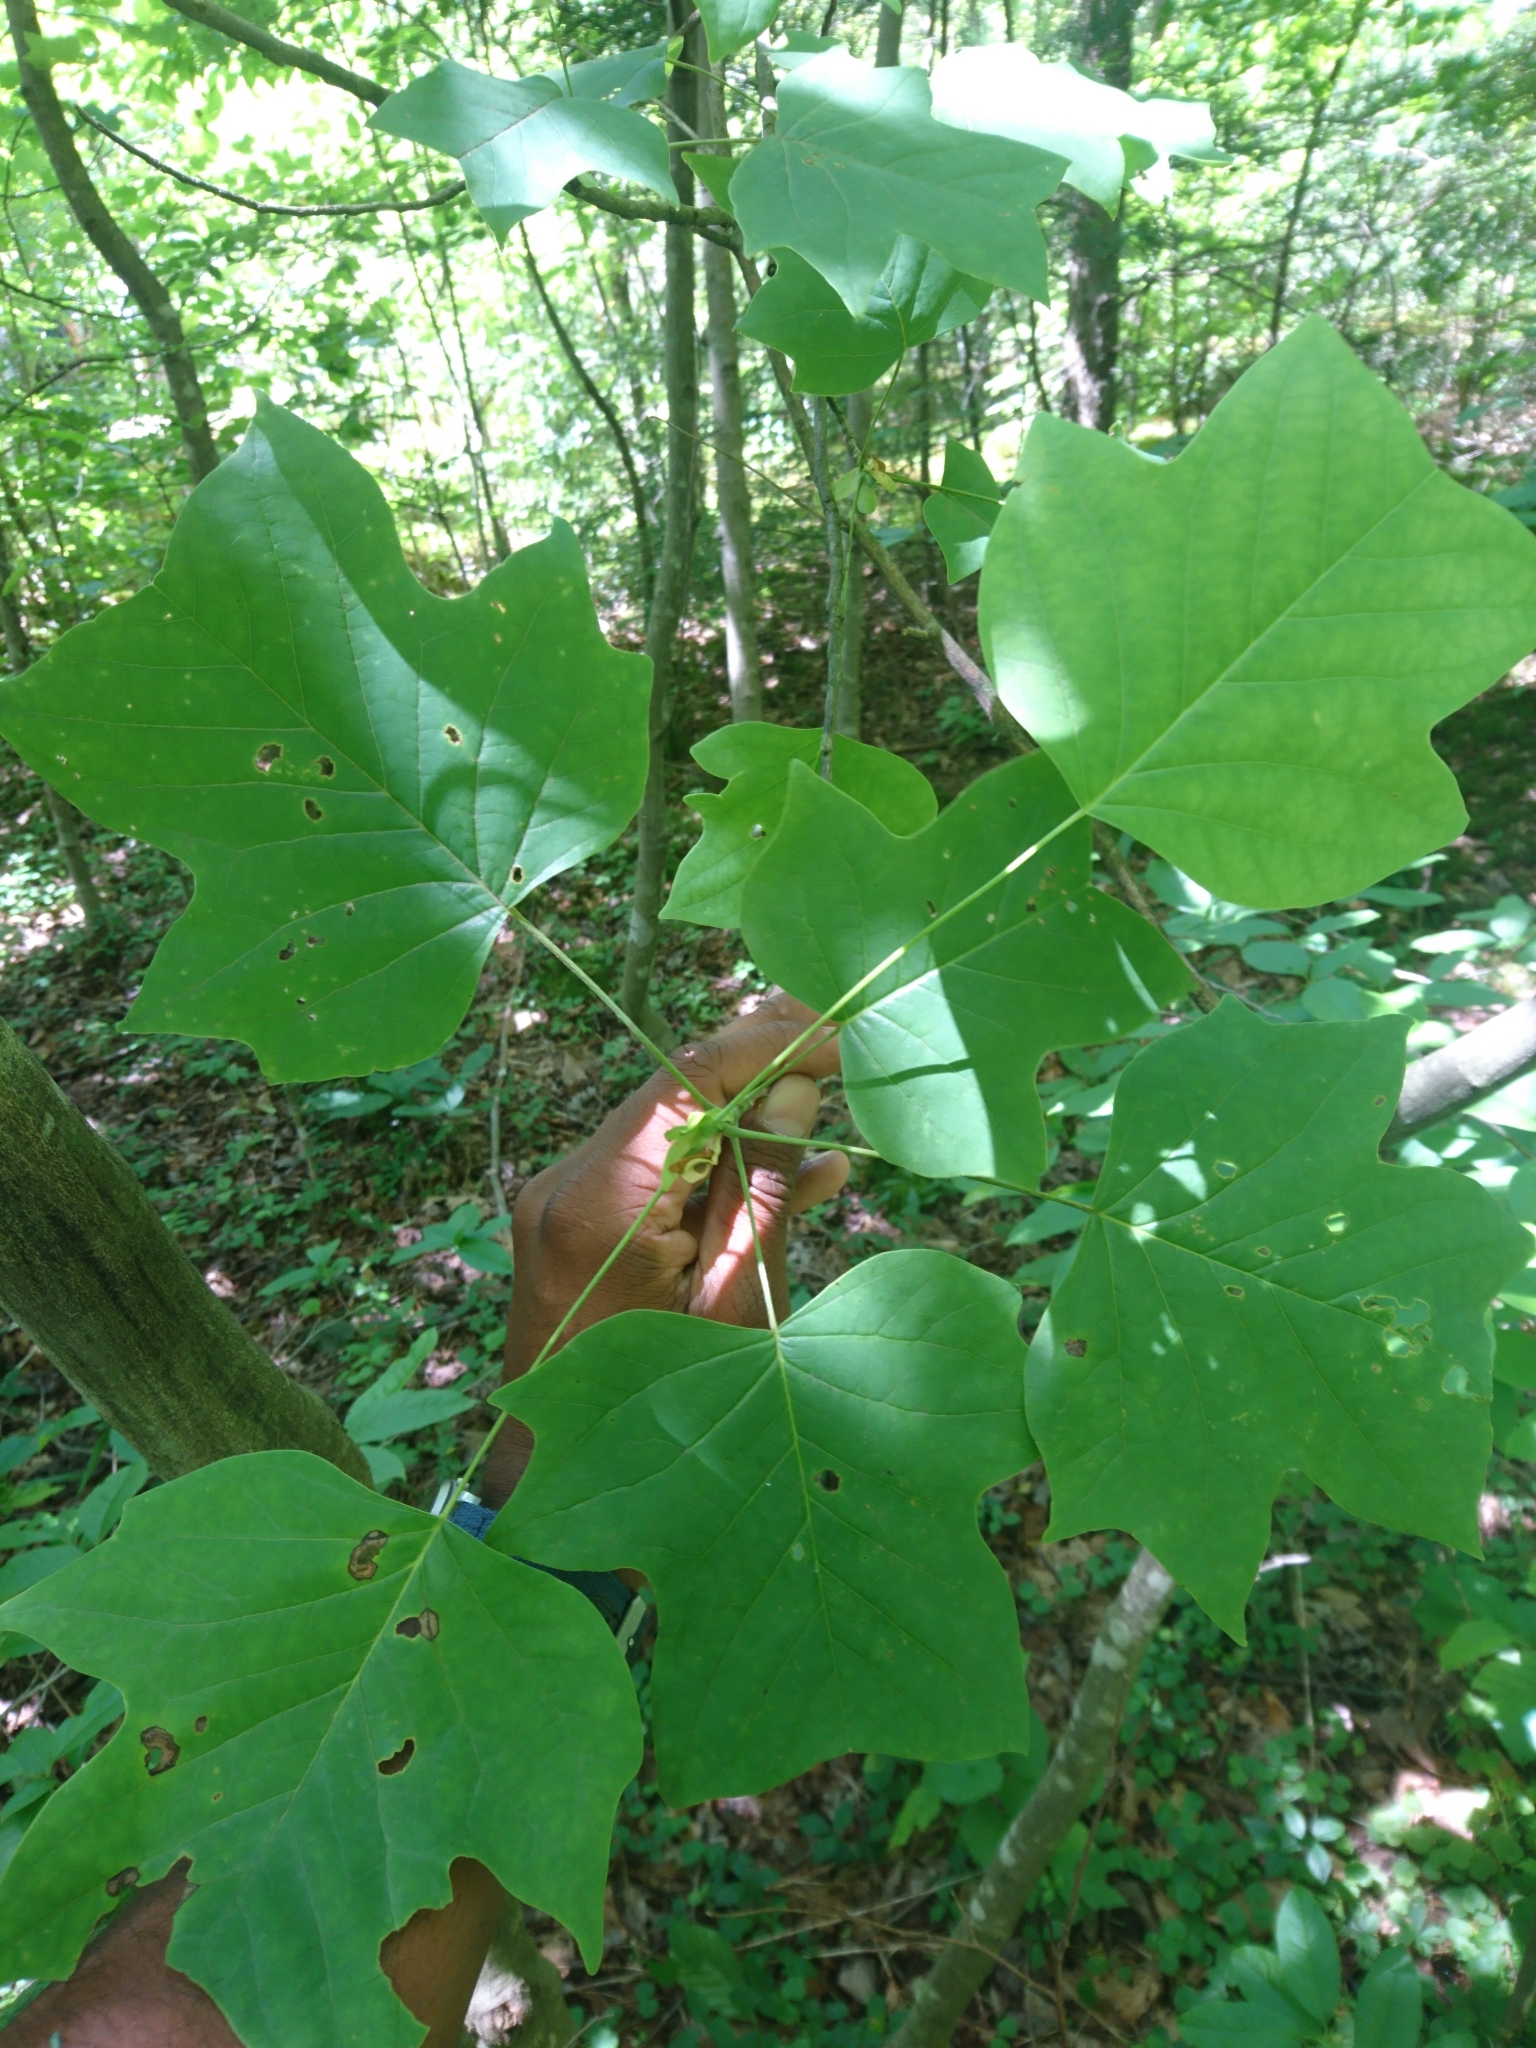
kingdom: Plantae
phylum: Tracheophyta
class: Magnoliopsida
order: Magnoliales
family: Magnoliaceae
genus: Liriodendron
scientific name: Liriodendron tulipifera
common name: Tulip tree
